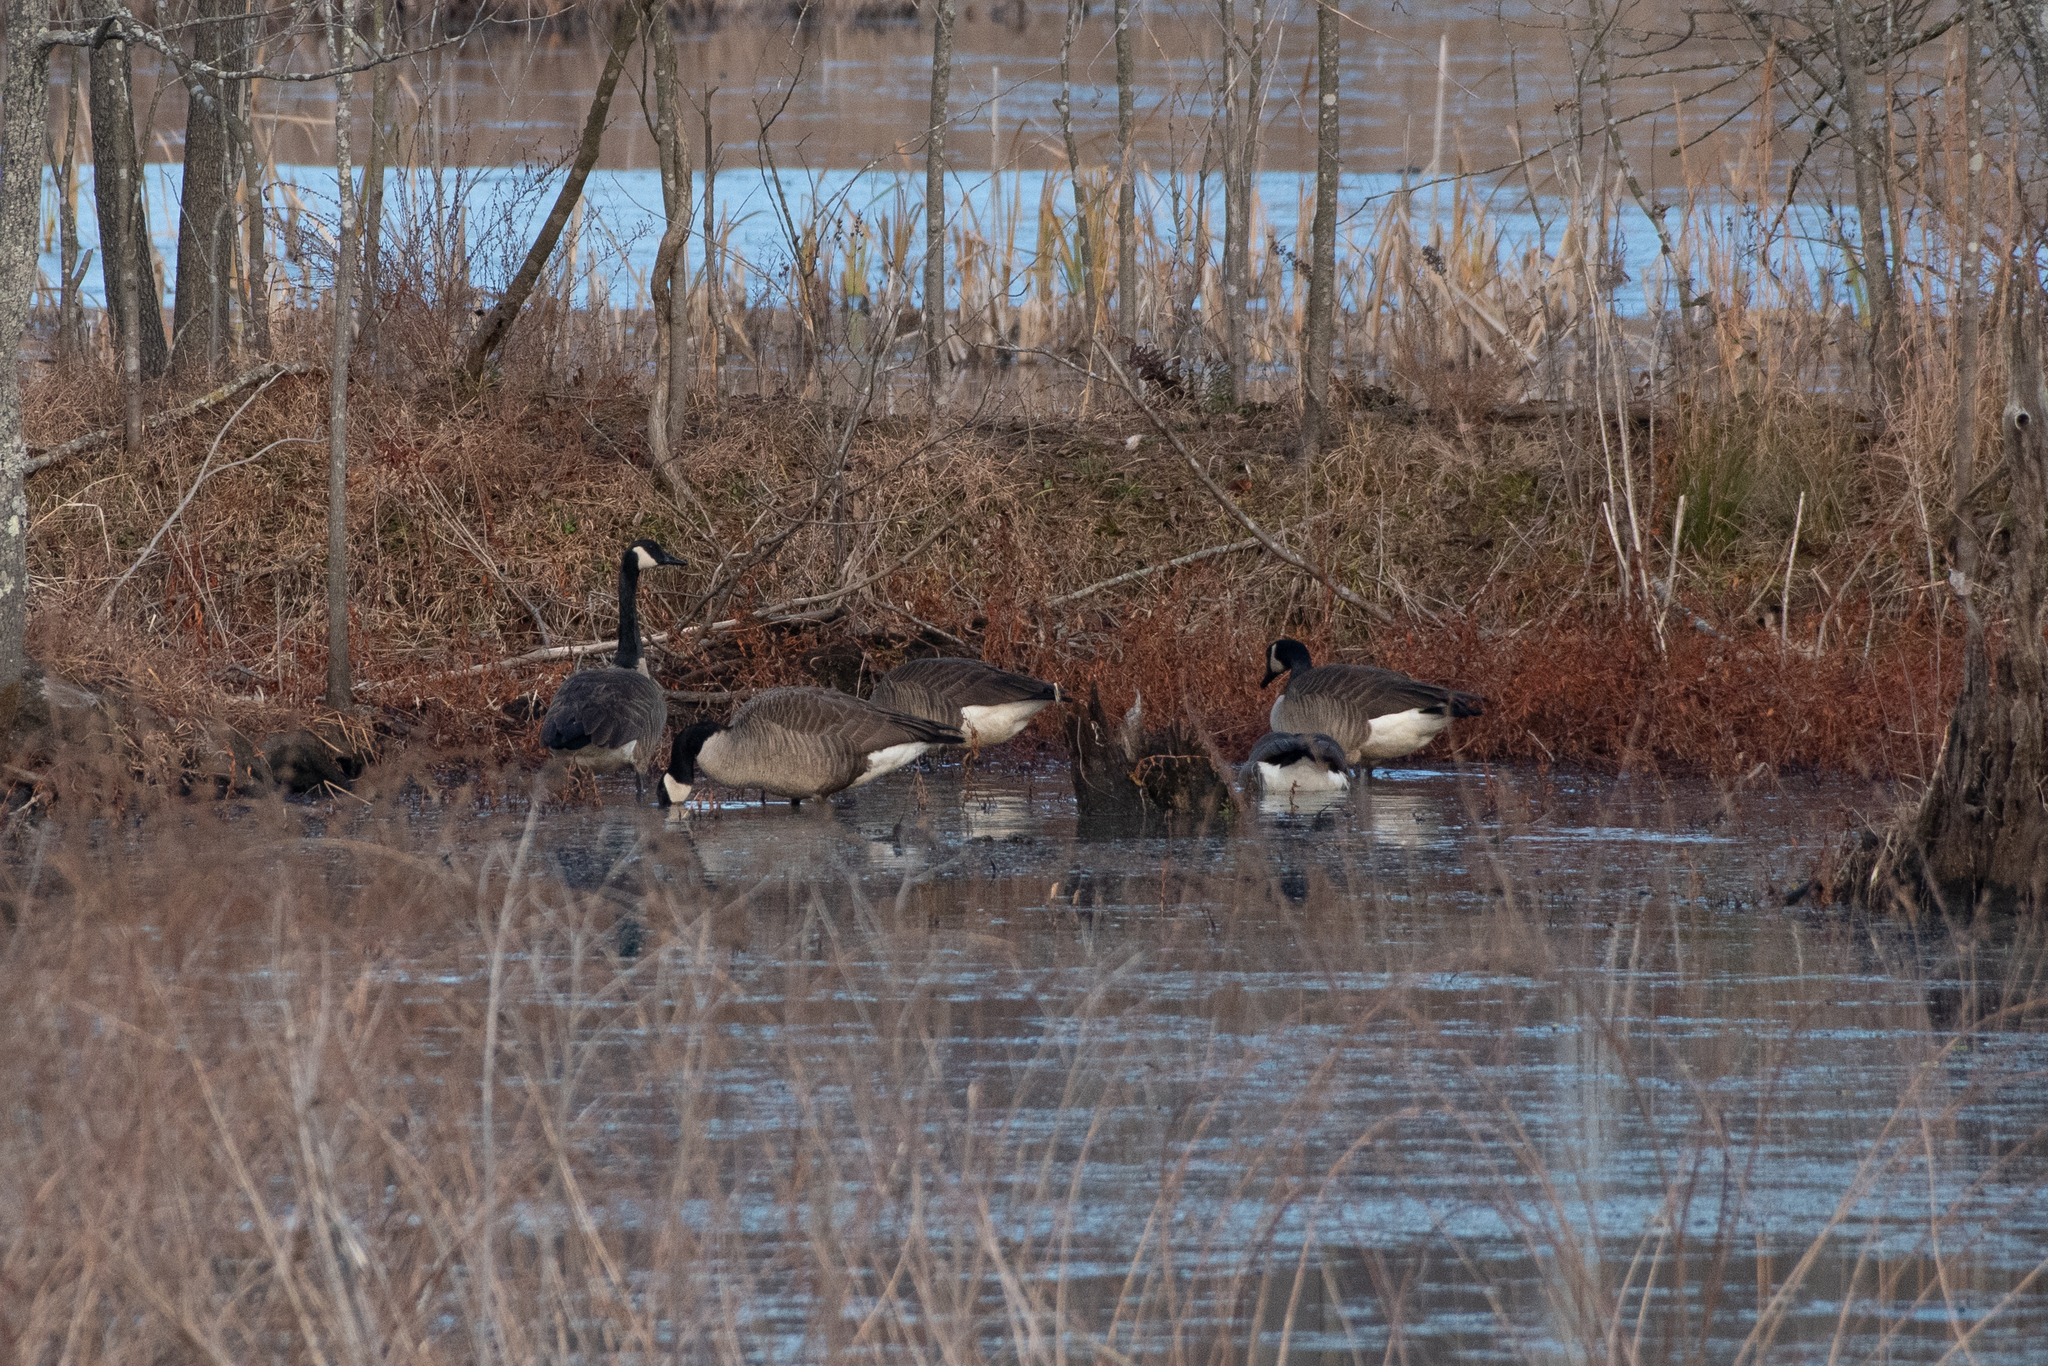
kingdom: Animalia
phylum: Chordata
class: Aves
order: Anseriformes
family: Anatidae
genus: Branta
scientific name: Branta canadensis
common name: Canada goose
